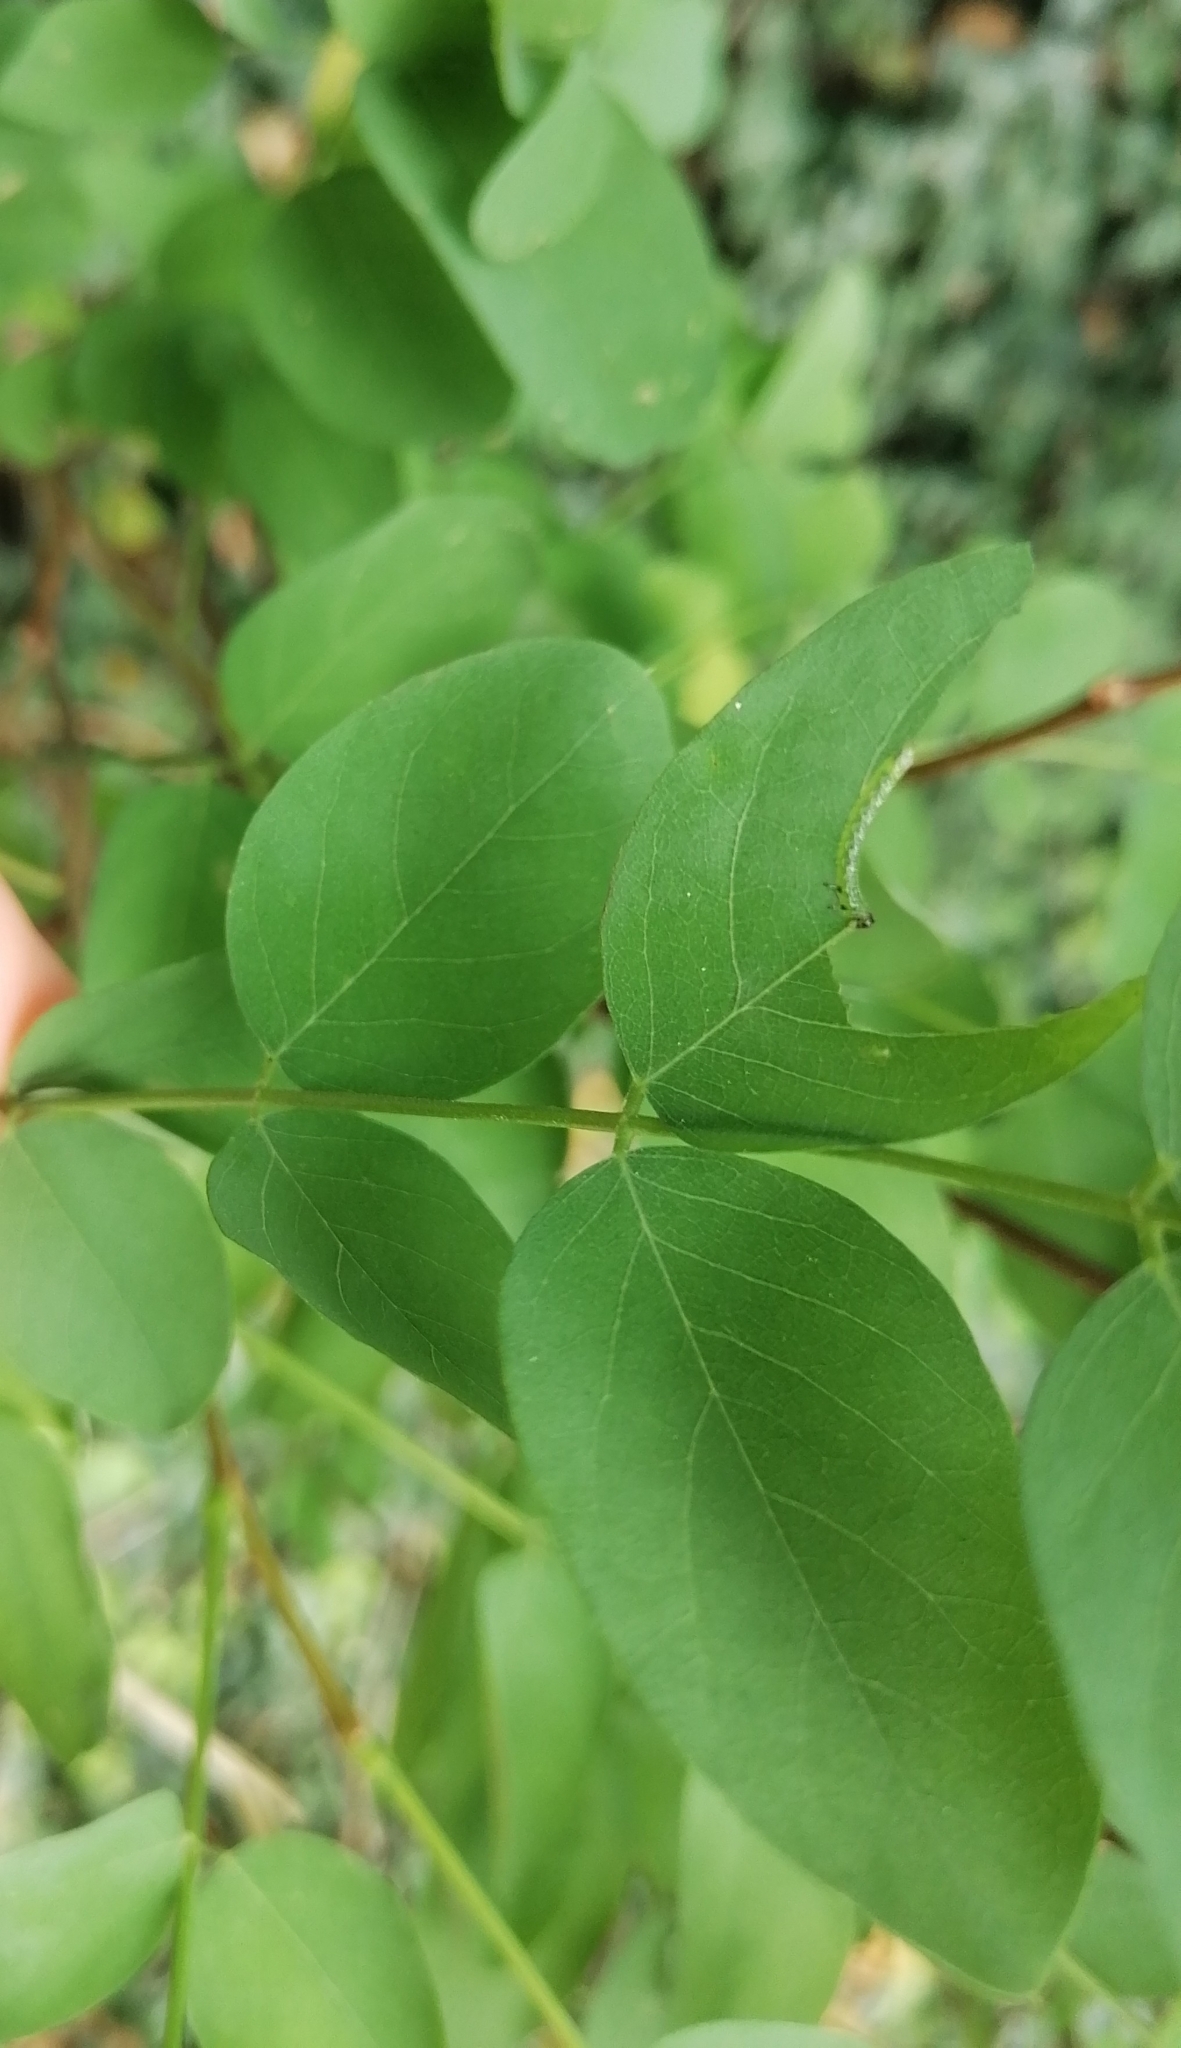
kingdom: Animalia
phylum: Arthropoda
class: Insecta
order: Hymenoptera
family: Tenthredinidae
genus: Euura
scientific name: Euura tibialis
